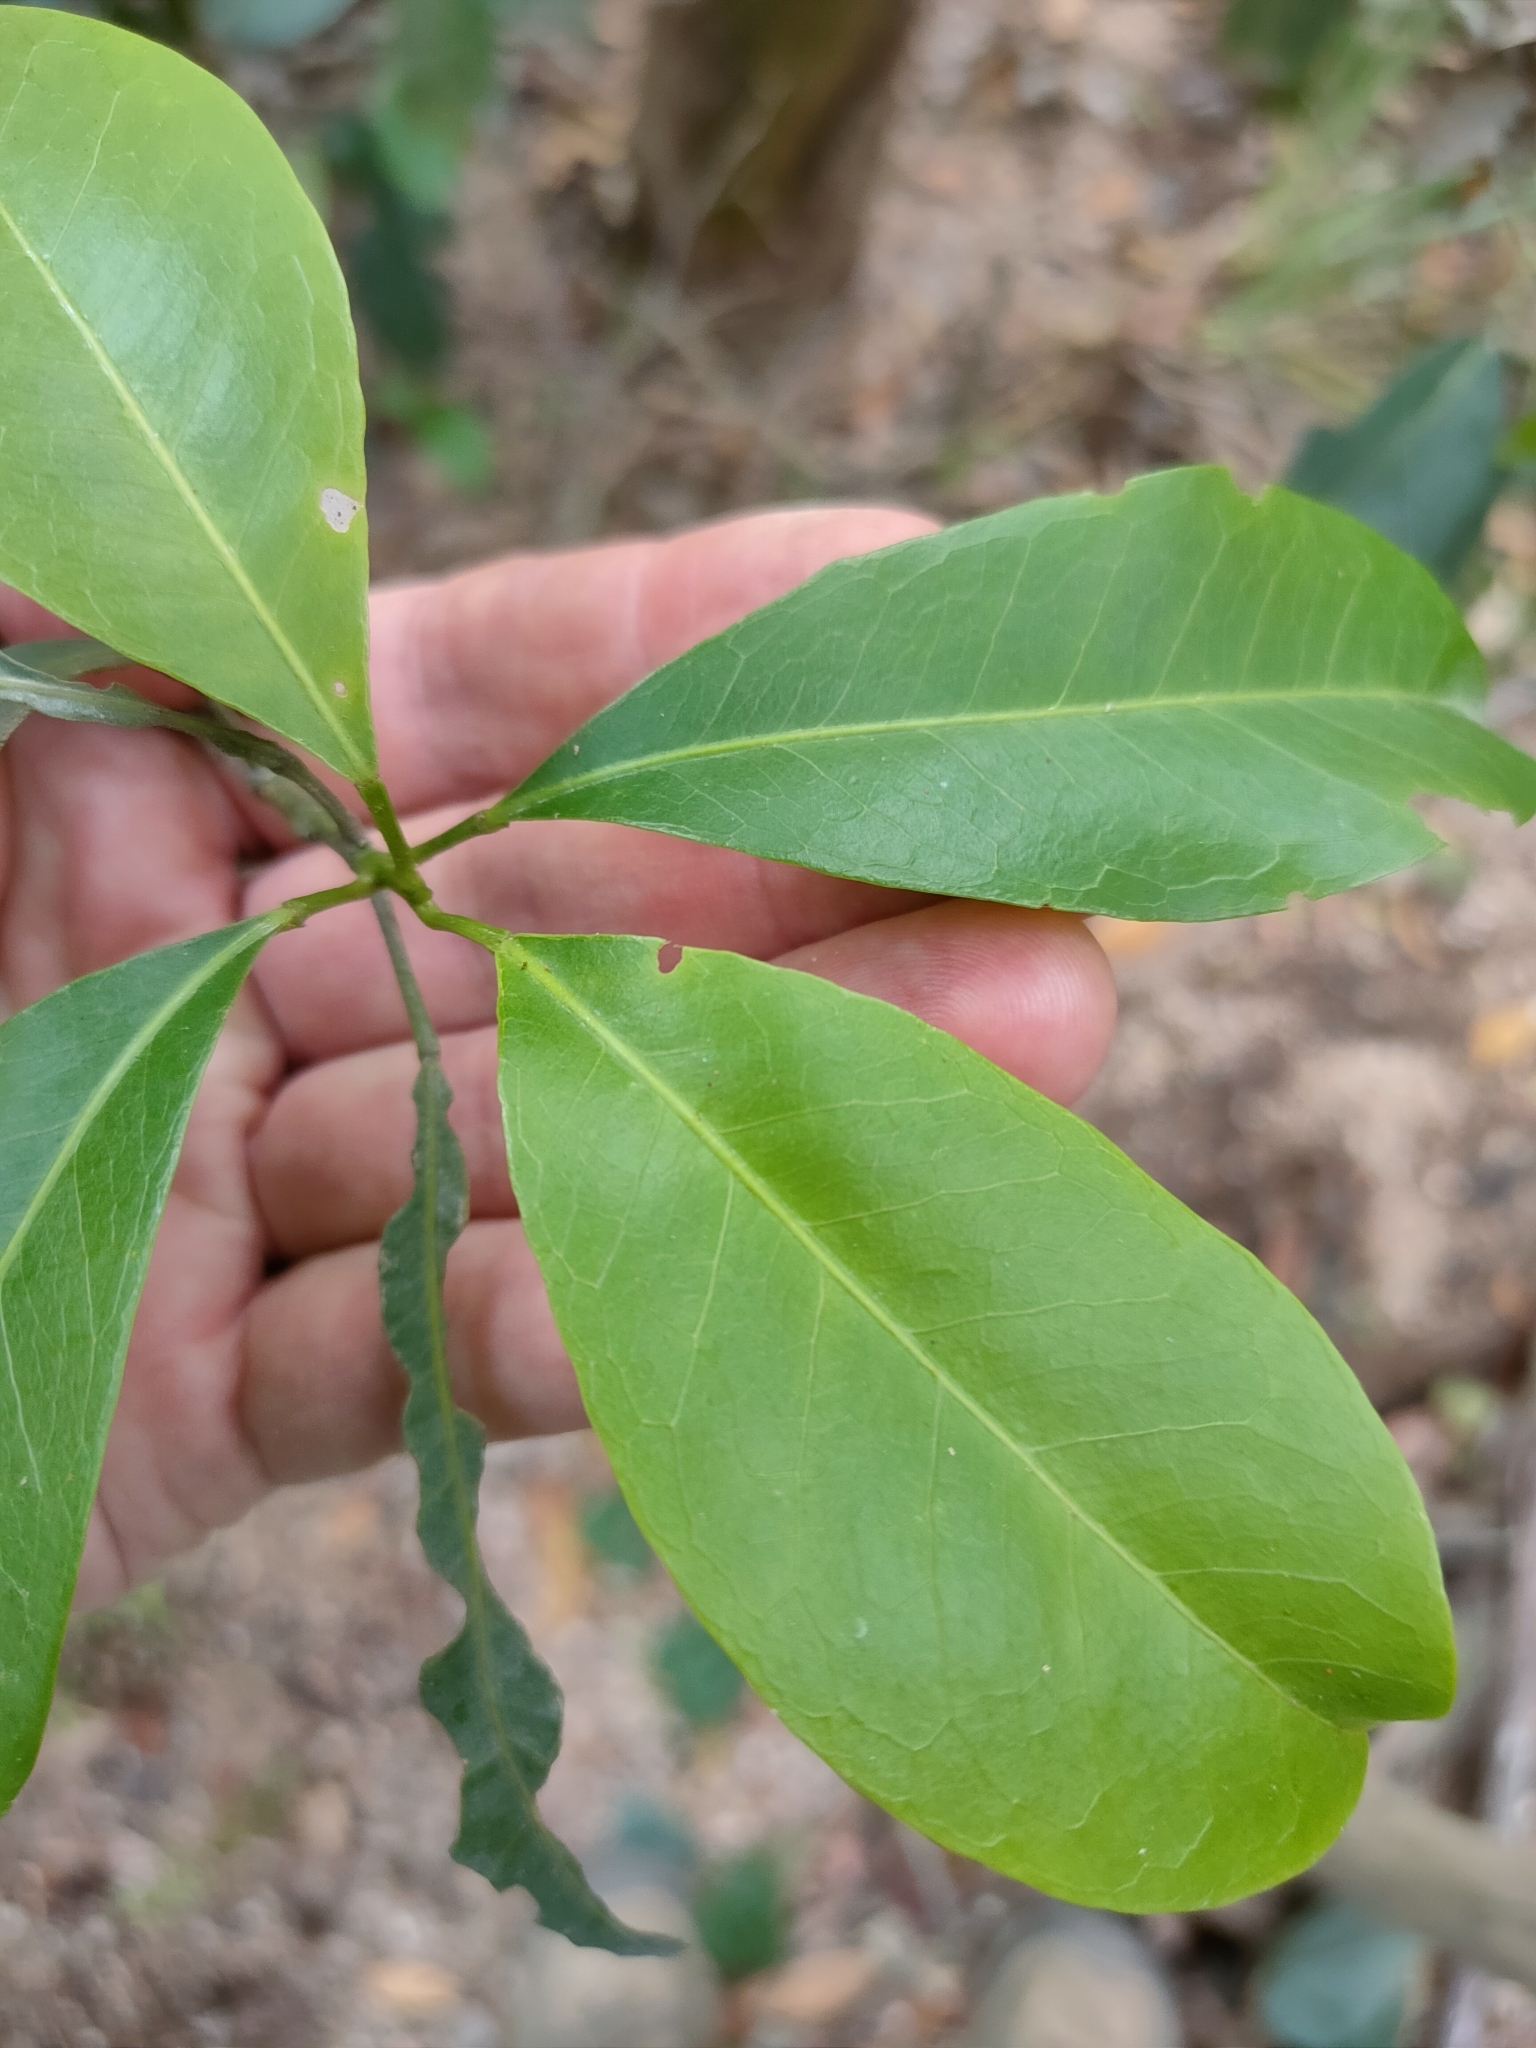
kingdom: Plantae
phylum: Tracheophyta
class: Magnoliopsida
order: Sapindales
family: Rutaceae
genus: Acronychia
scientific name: Acronychia imperforata
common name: Beach acronychia
